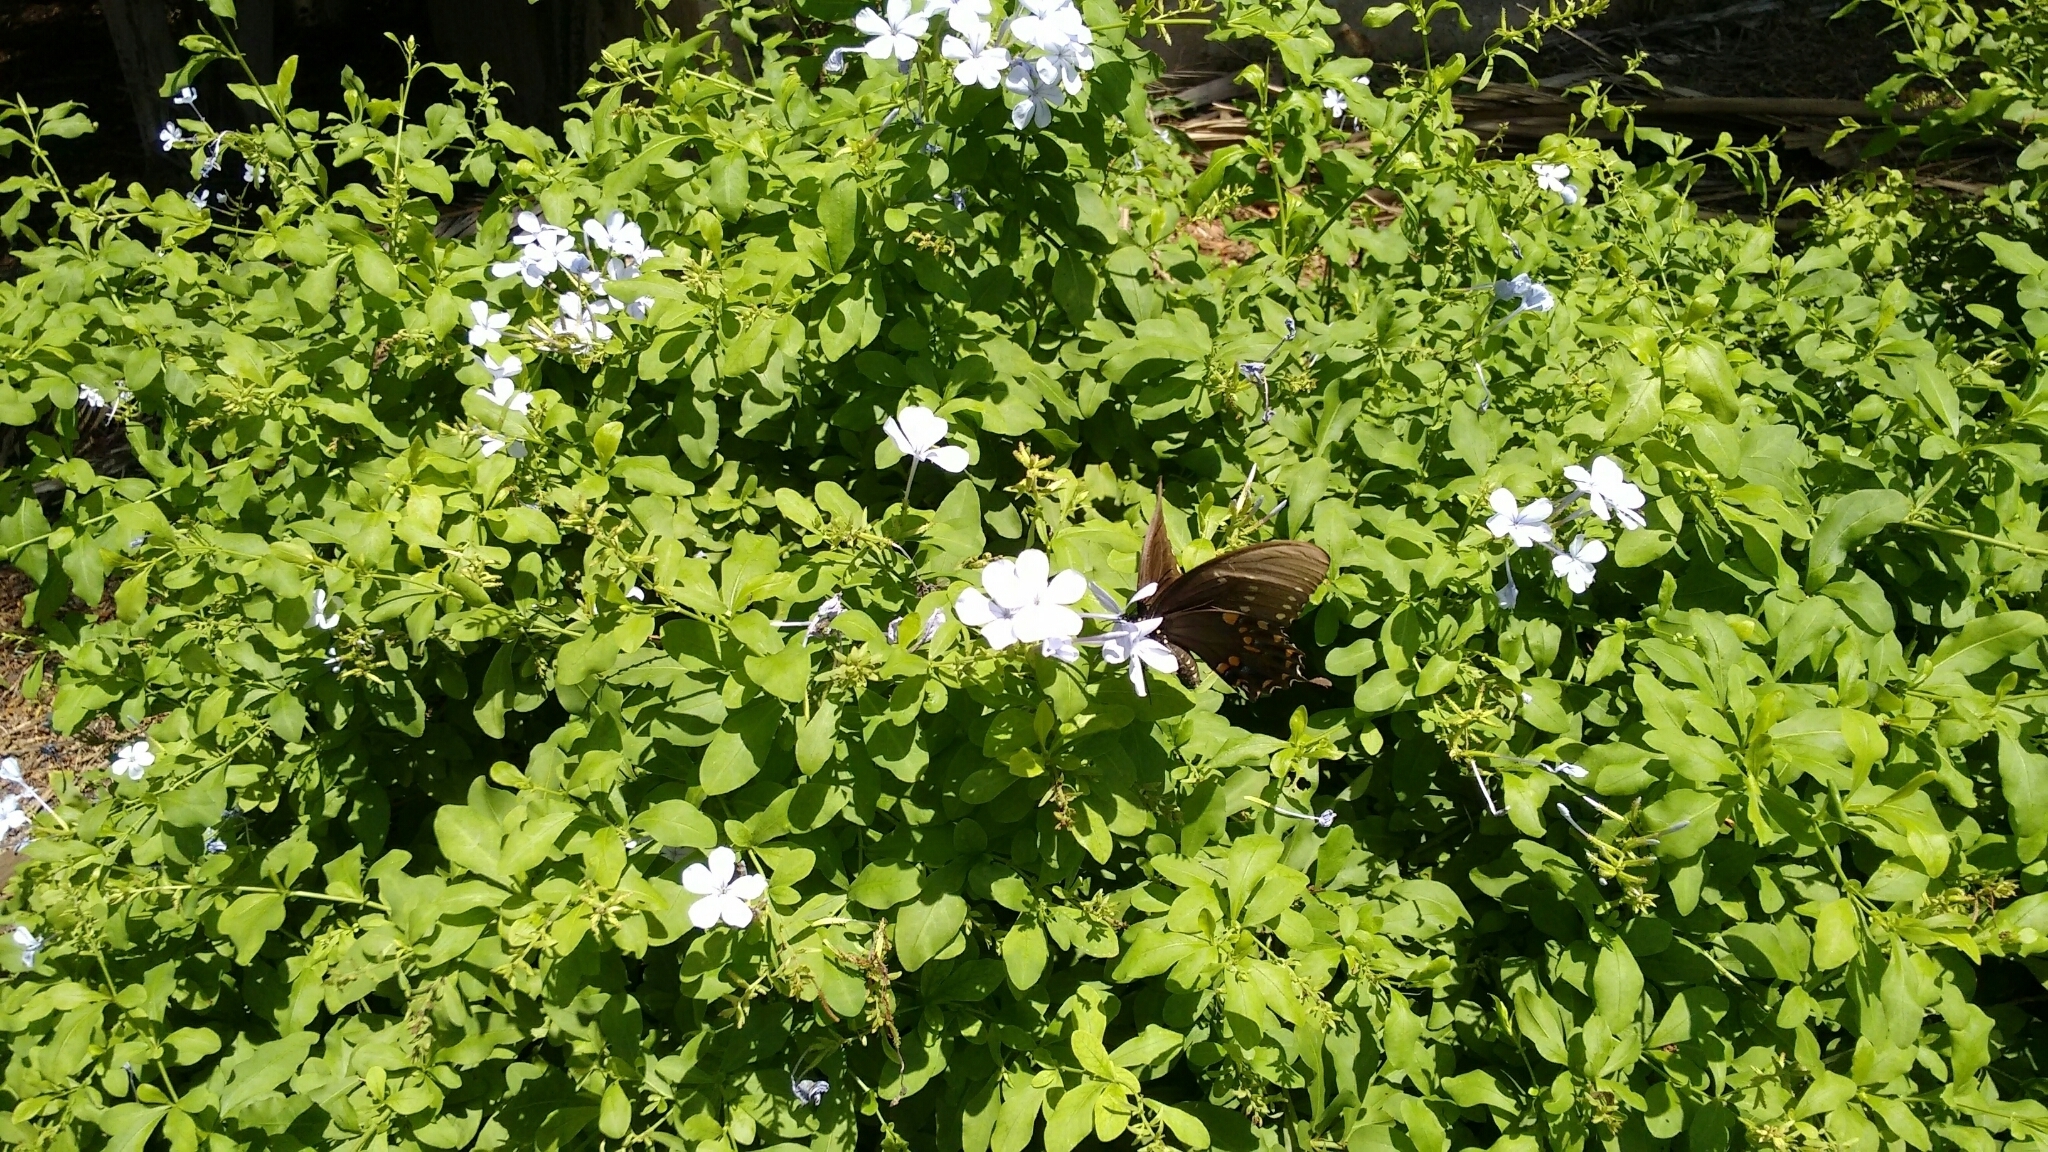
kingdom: Animalia
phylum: Arthropoda
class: Insecta
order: Lepidoptera
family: Papilionidae
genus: Papilio
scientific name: Papilio troilus
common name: Spicebush swallowtail
